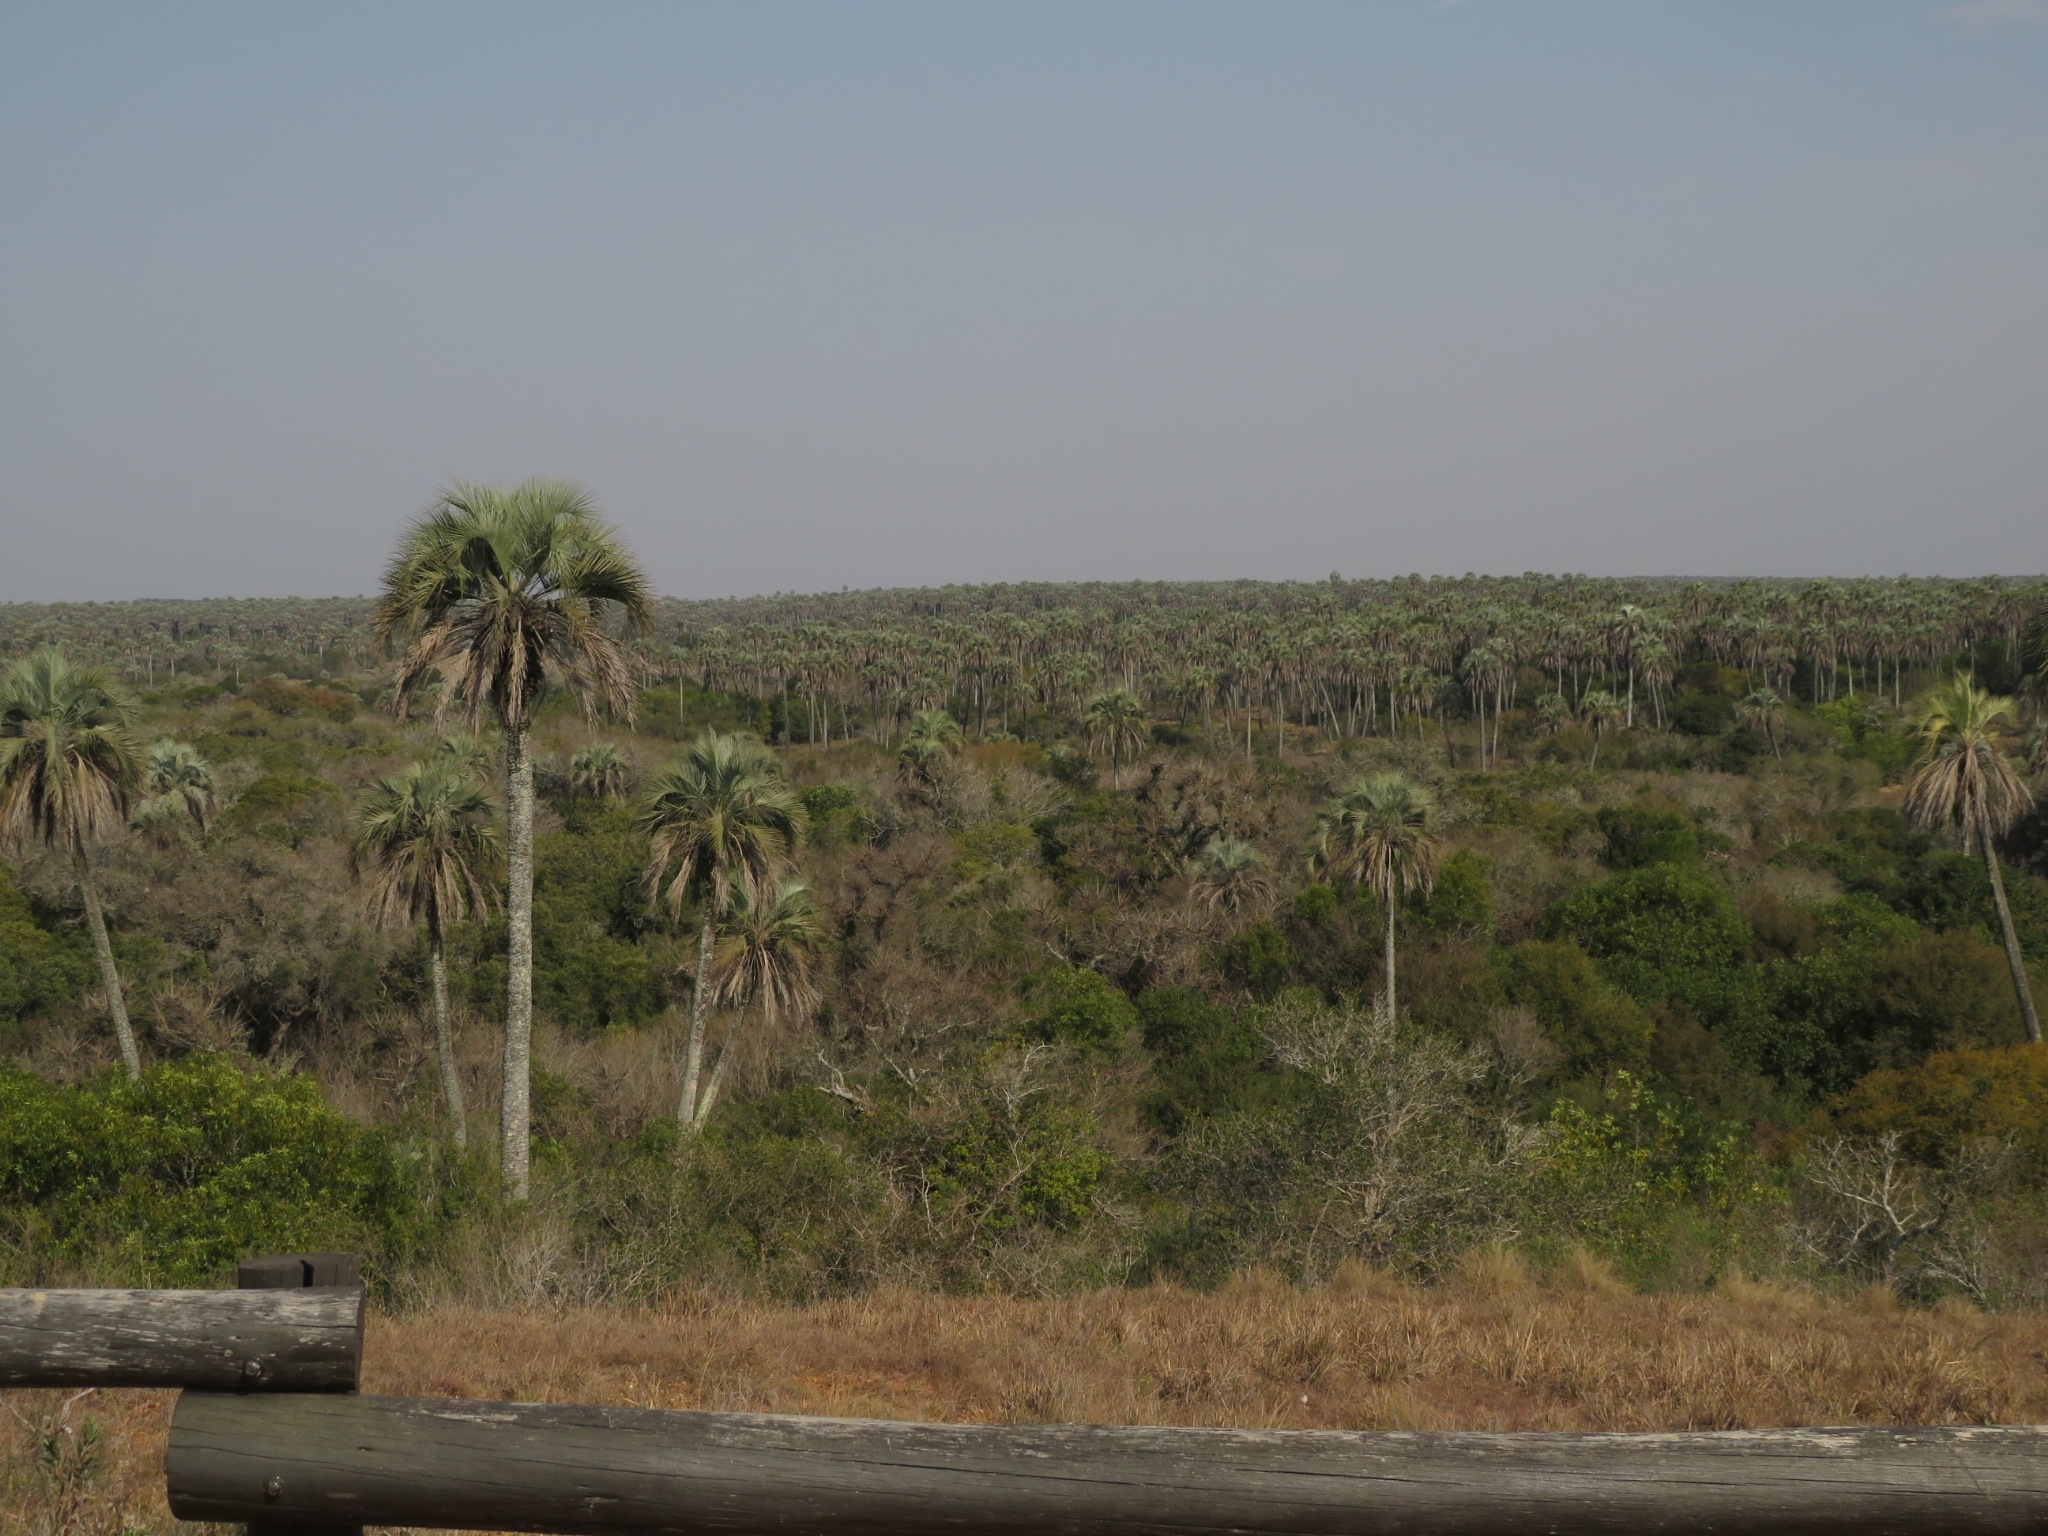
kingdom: Plantae
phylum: Tracheophyta
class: Liliopsida
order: Arecales
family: Arecaceae
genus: Butia
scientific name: Butia yatay
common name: Yatay palm
